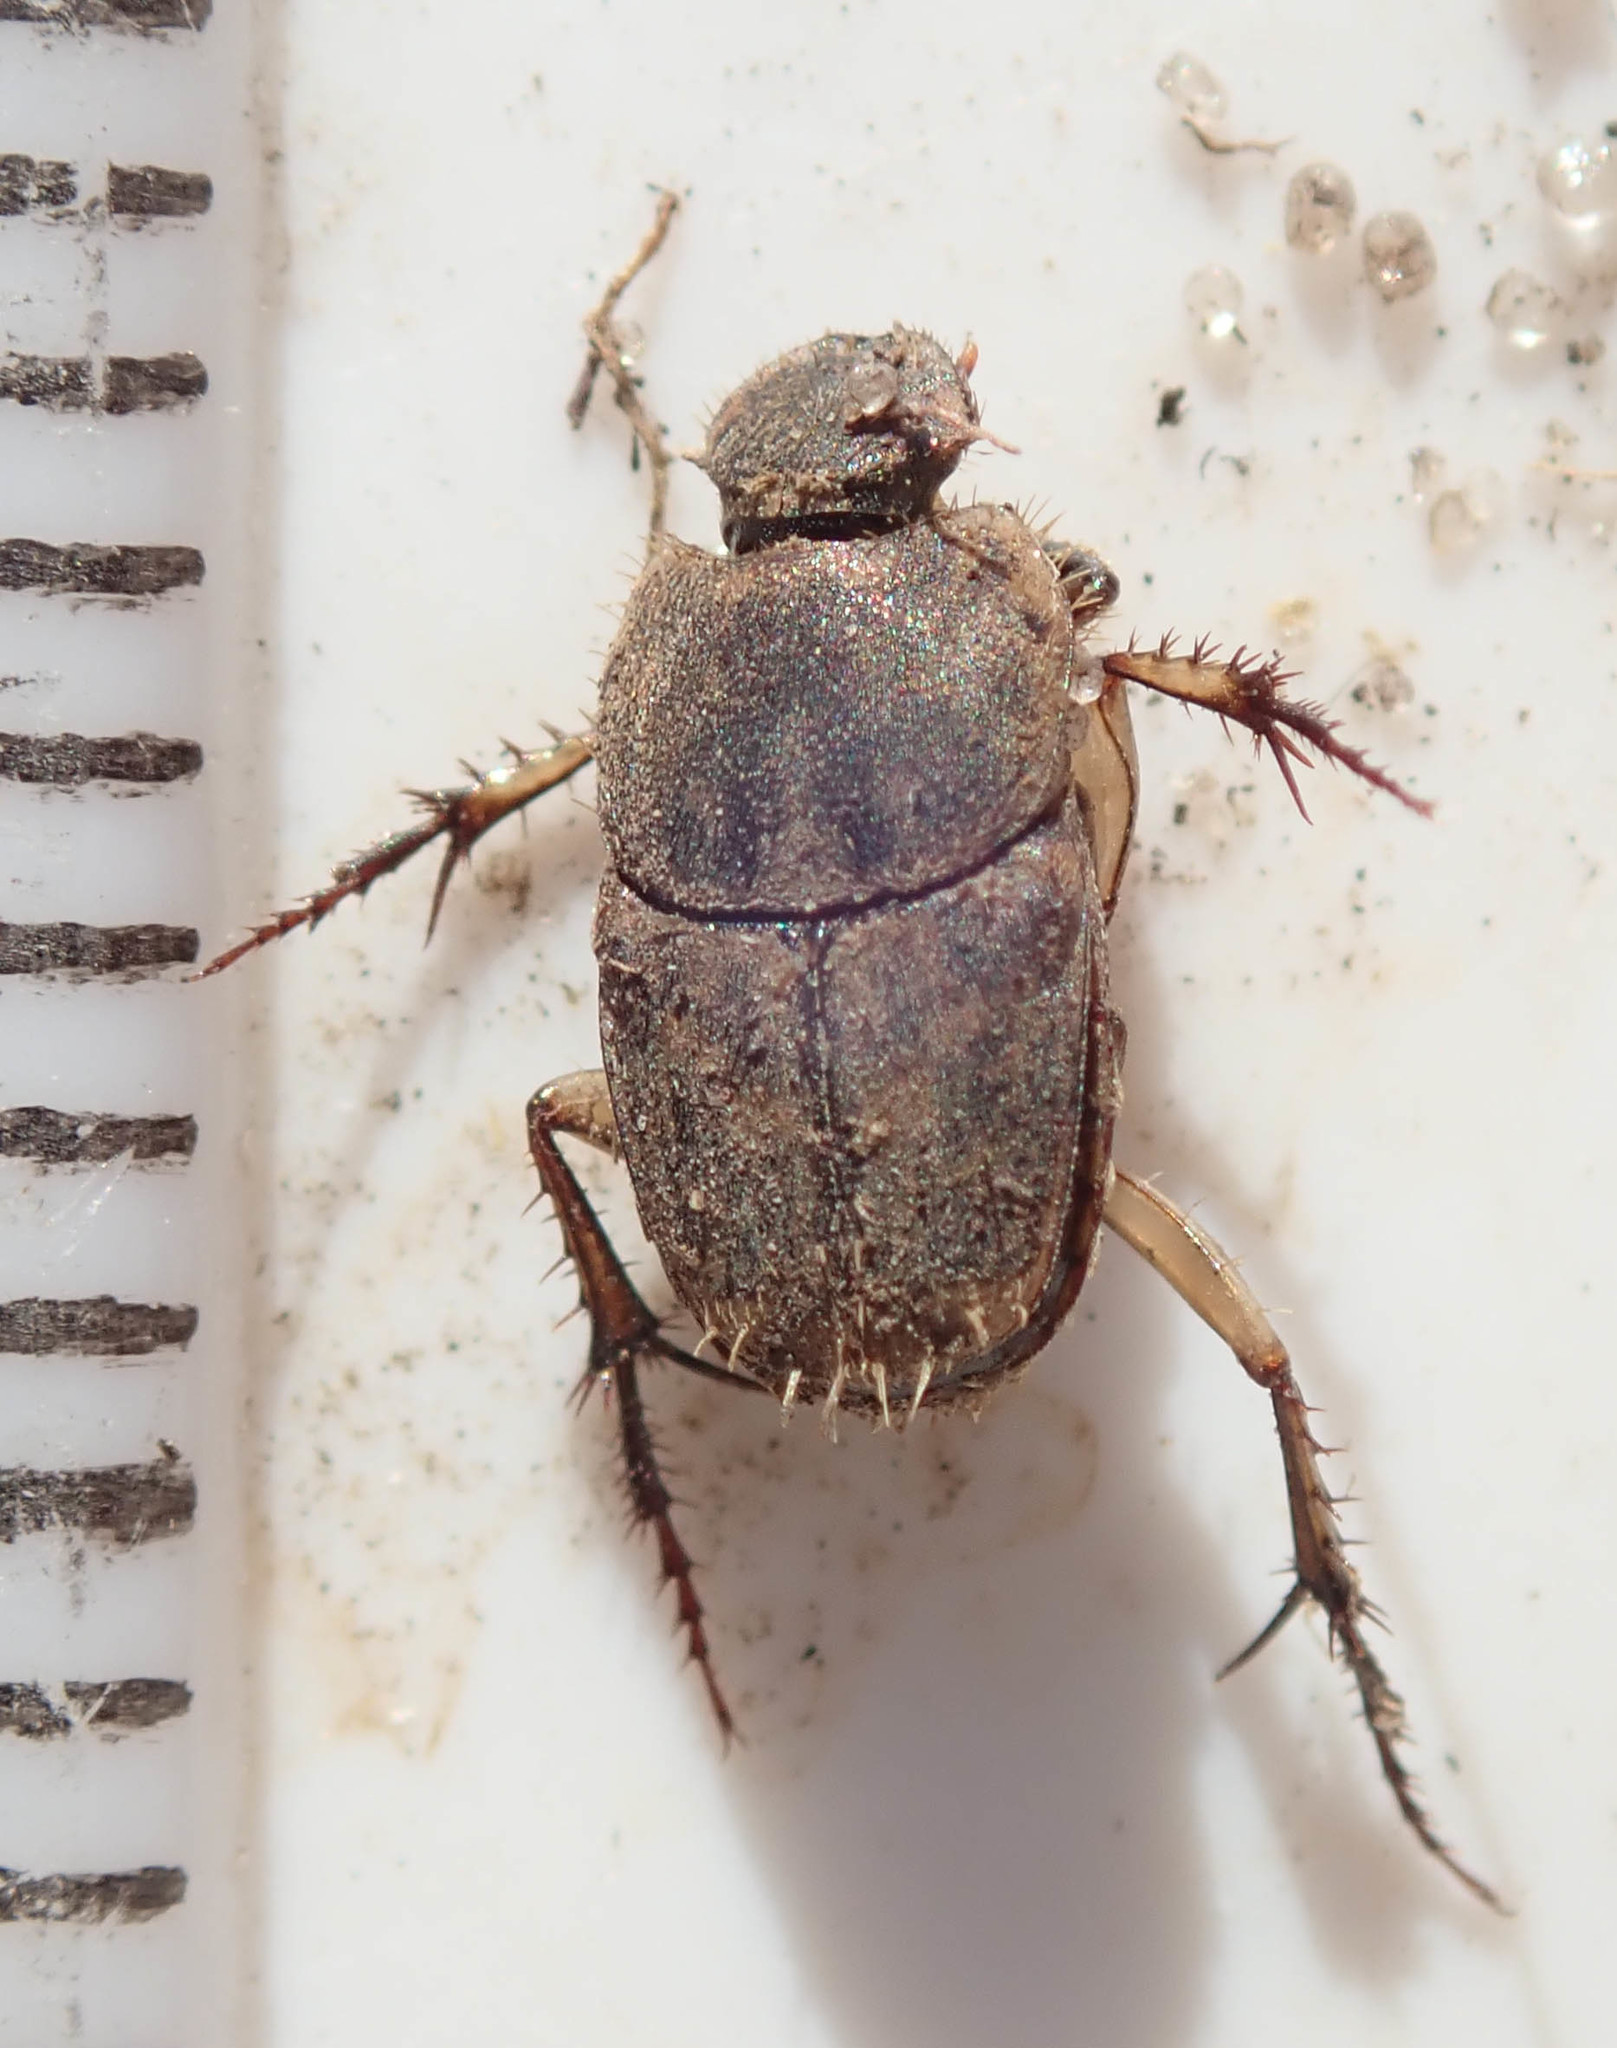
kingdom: Animalia
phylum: Arthropoda
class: Insecta
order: Coleoptera
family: Scarabaeidae
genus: Tiniocellus
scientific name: Tiniocellus spinipes
